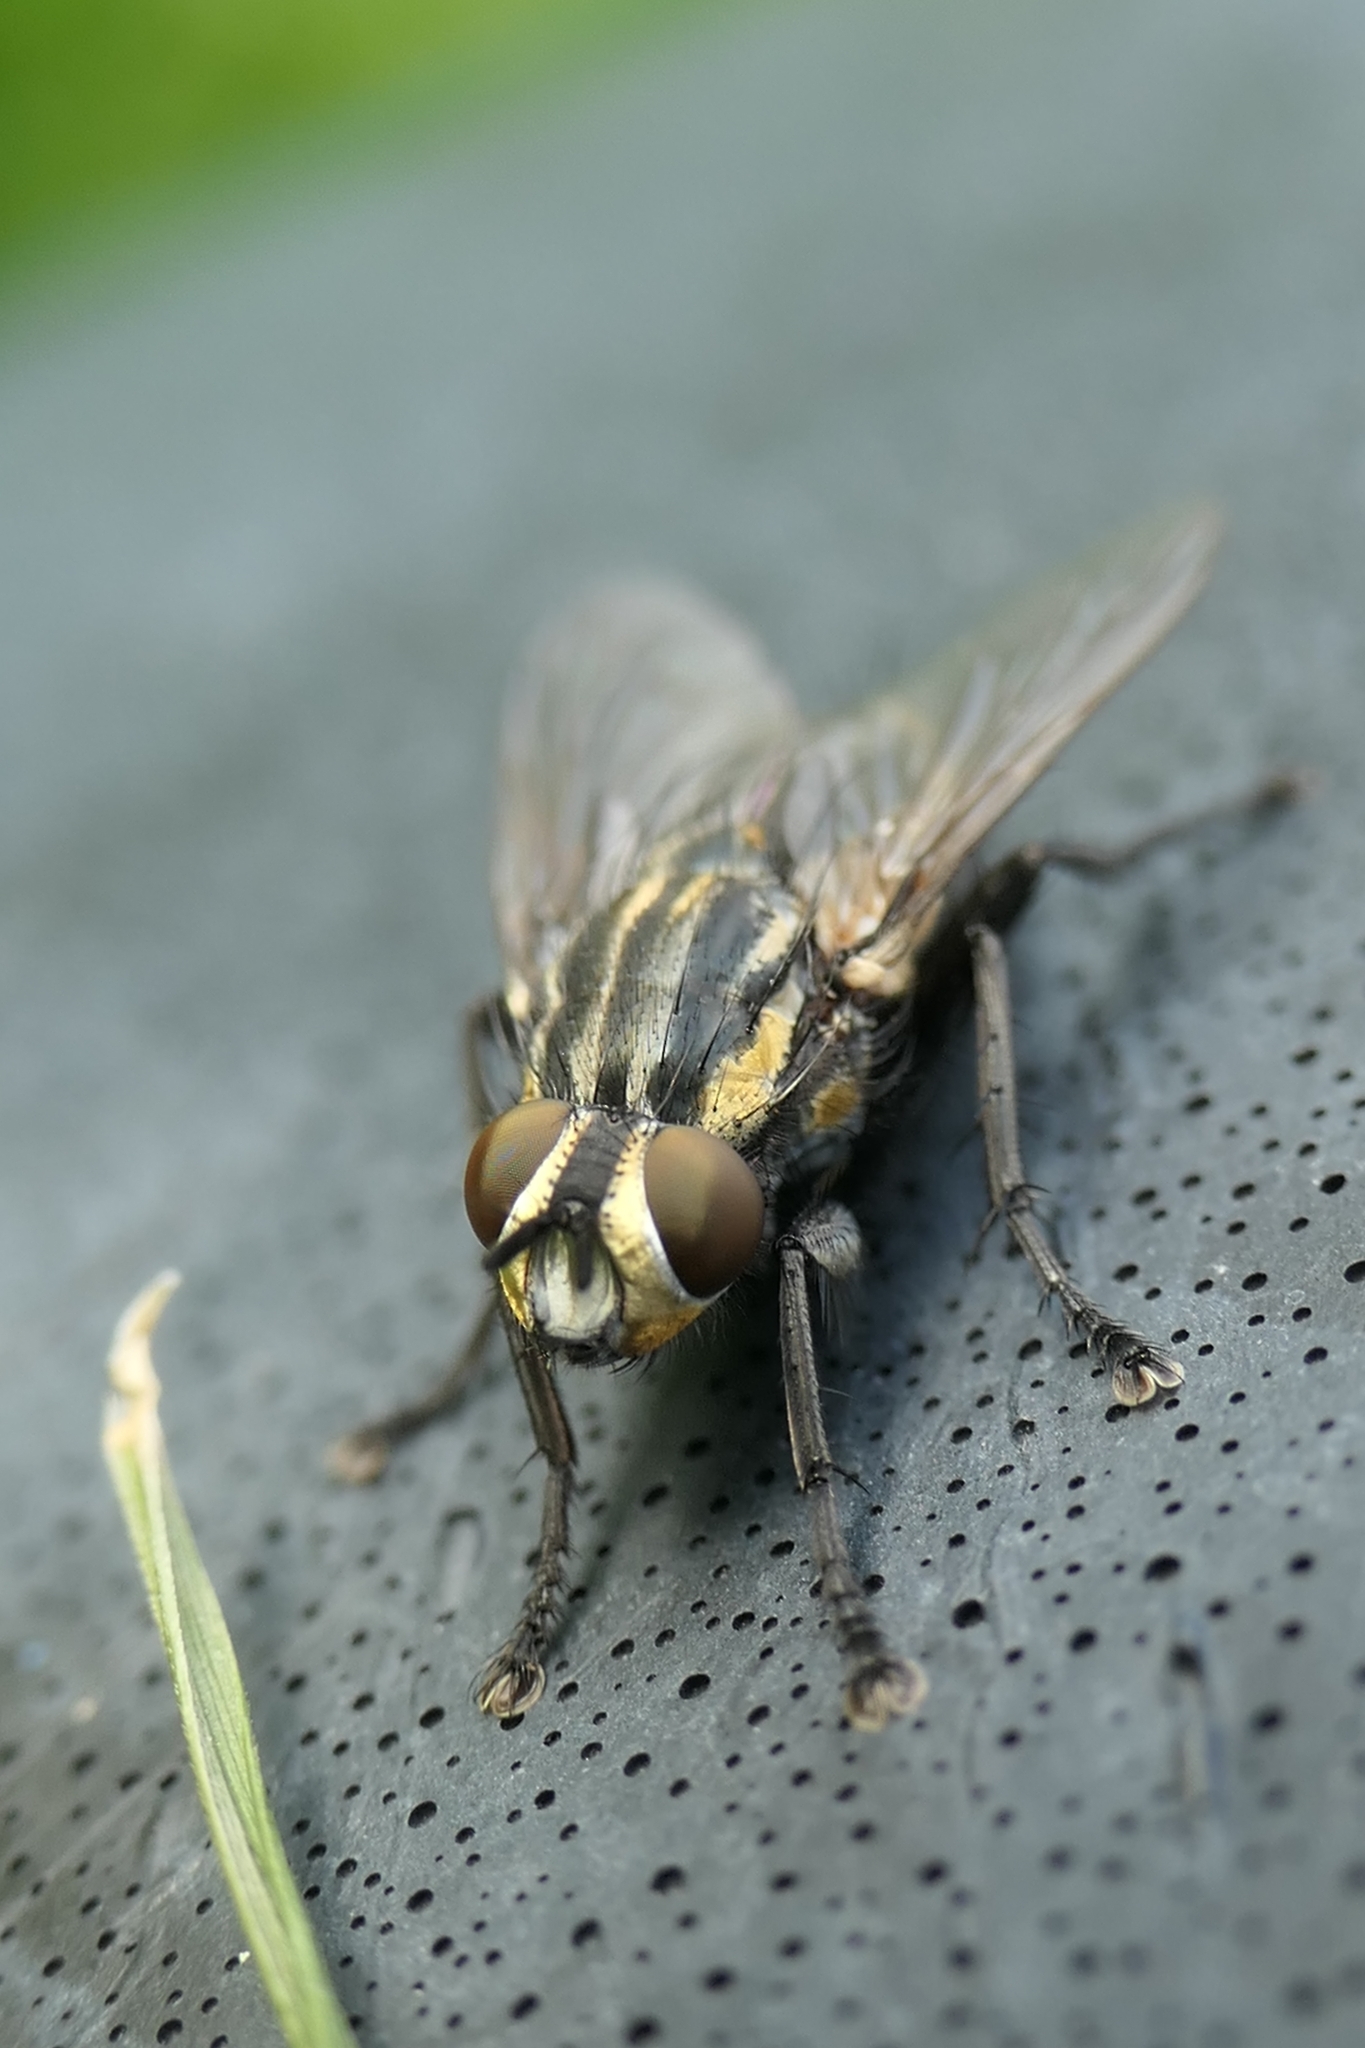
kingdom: Animalia
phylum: Arthropoda
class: Insecta
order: Diptera
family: Sarcophagidae
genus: Oxysarcodexia
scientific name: Oxysarcodexia varia
